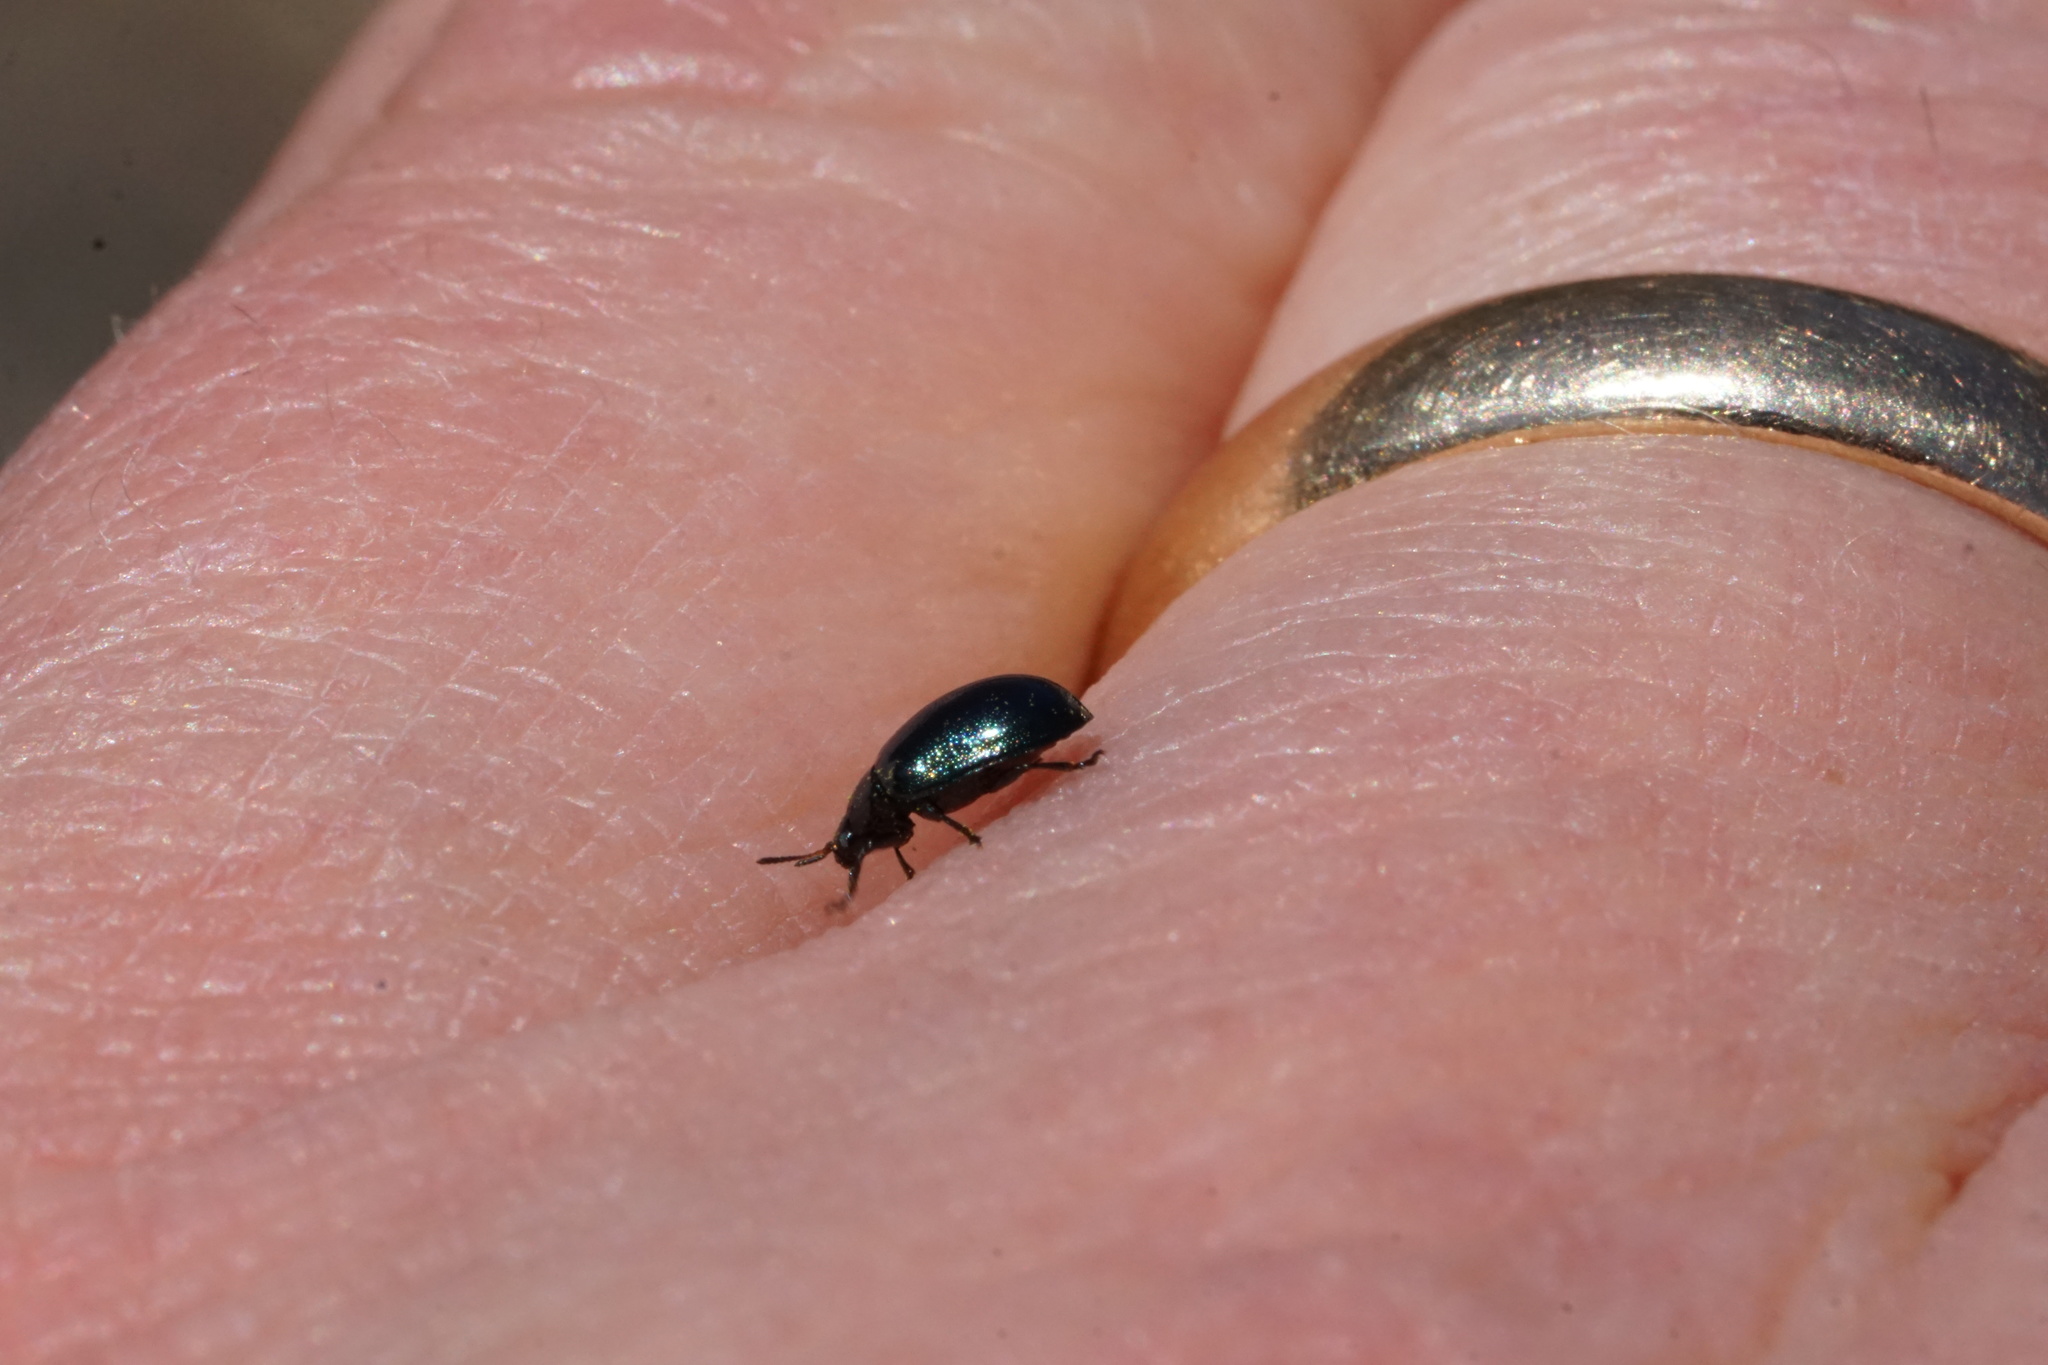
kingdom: Animalia
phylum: Arthropoda
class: Insecta
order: Coleoptera
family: Chrysomelidae
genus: Plagiodera
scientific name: Plagiodera versicolora
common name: Imported willow leaf beetle
